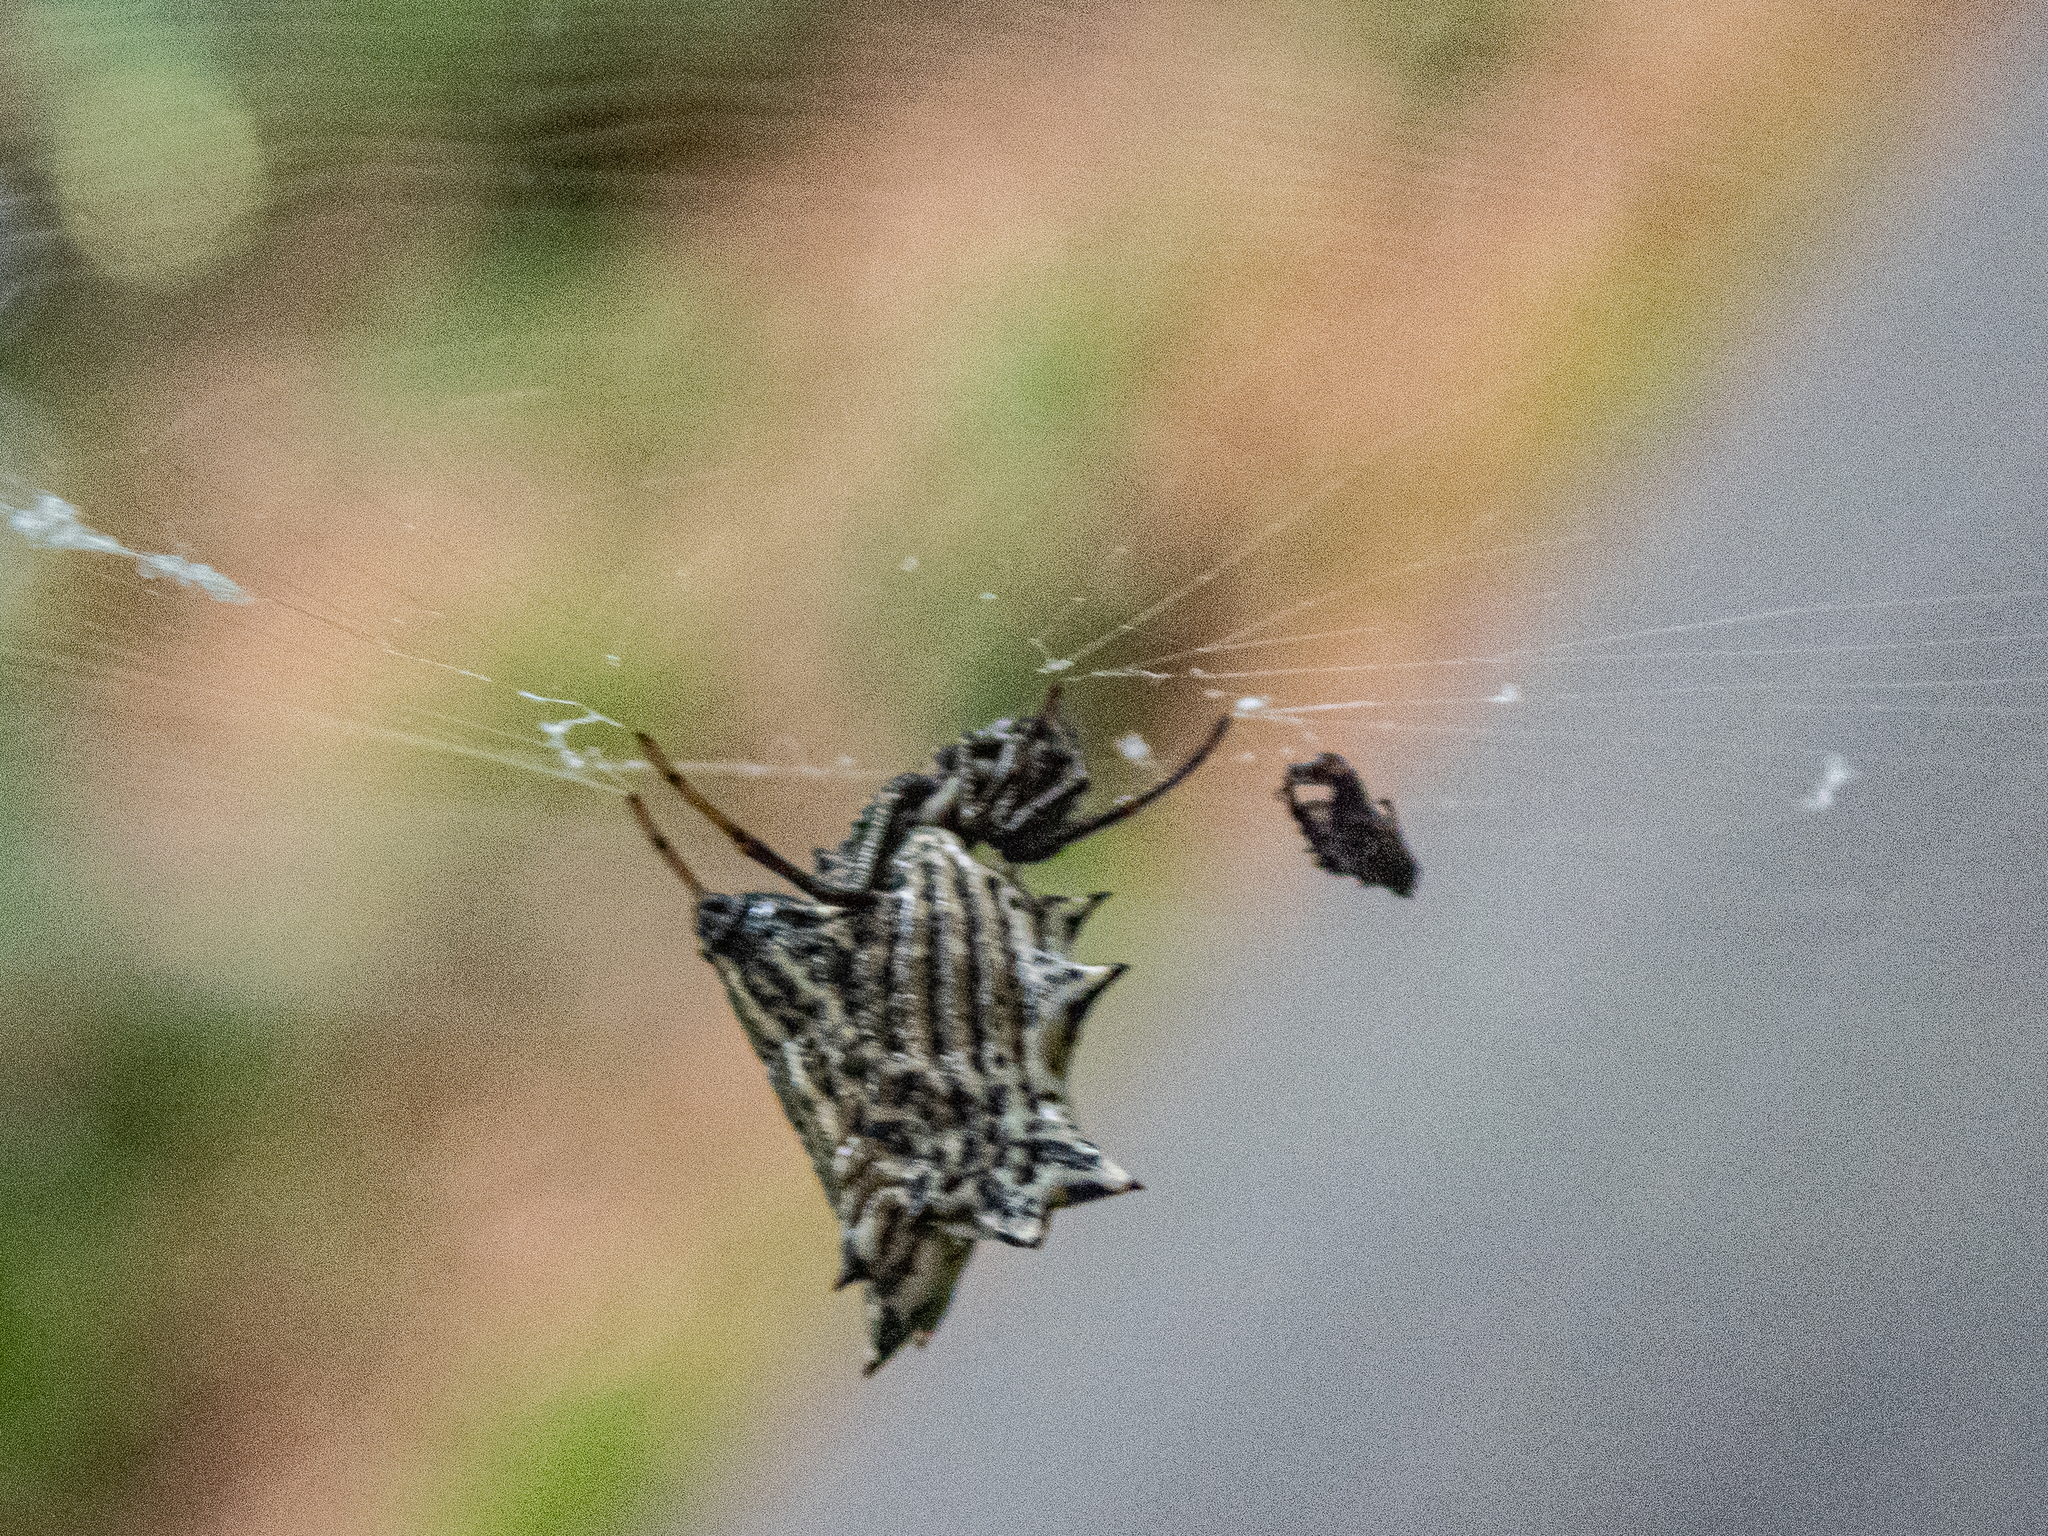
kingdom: Animalia
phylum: Arthropoda
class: Arachnida
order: Araneae
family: Araneidae
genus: Micrathena
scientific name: Micrathena gracilis
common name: Orb weavers
